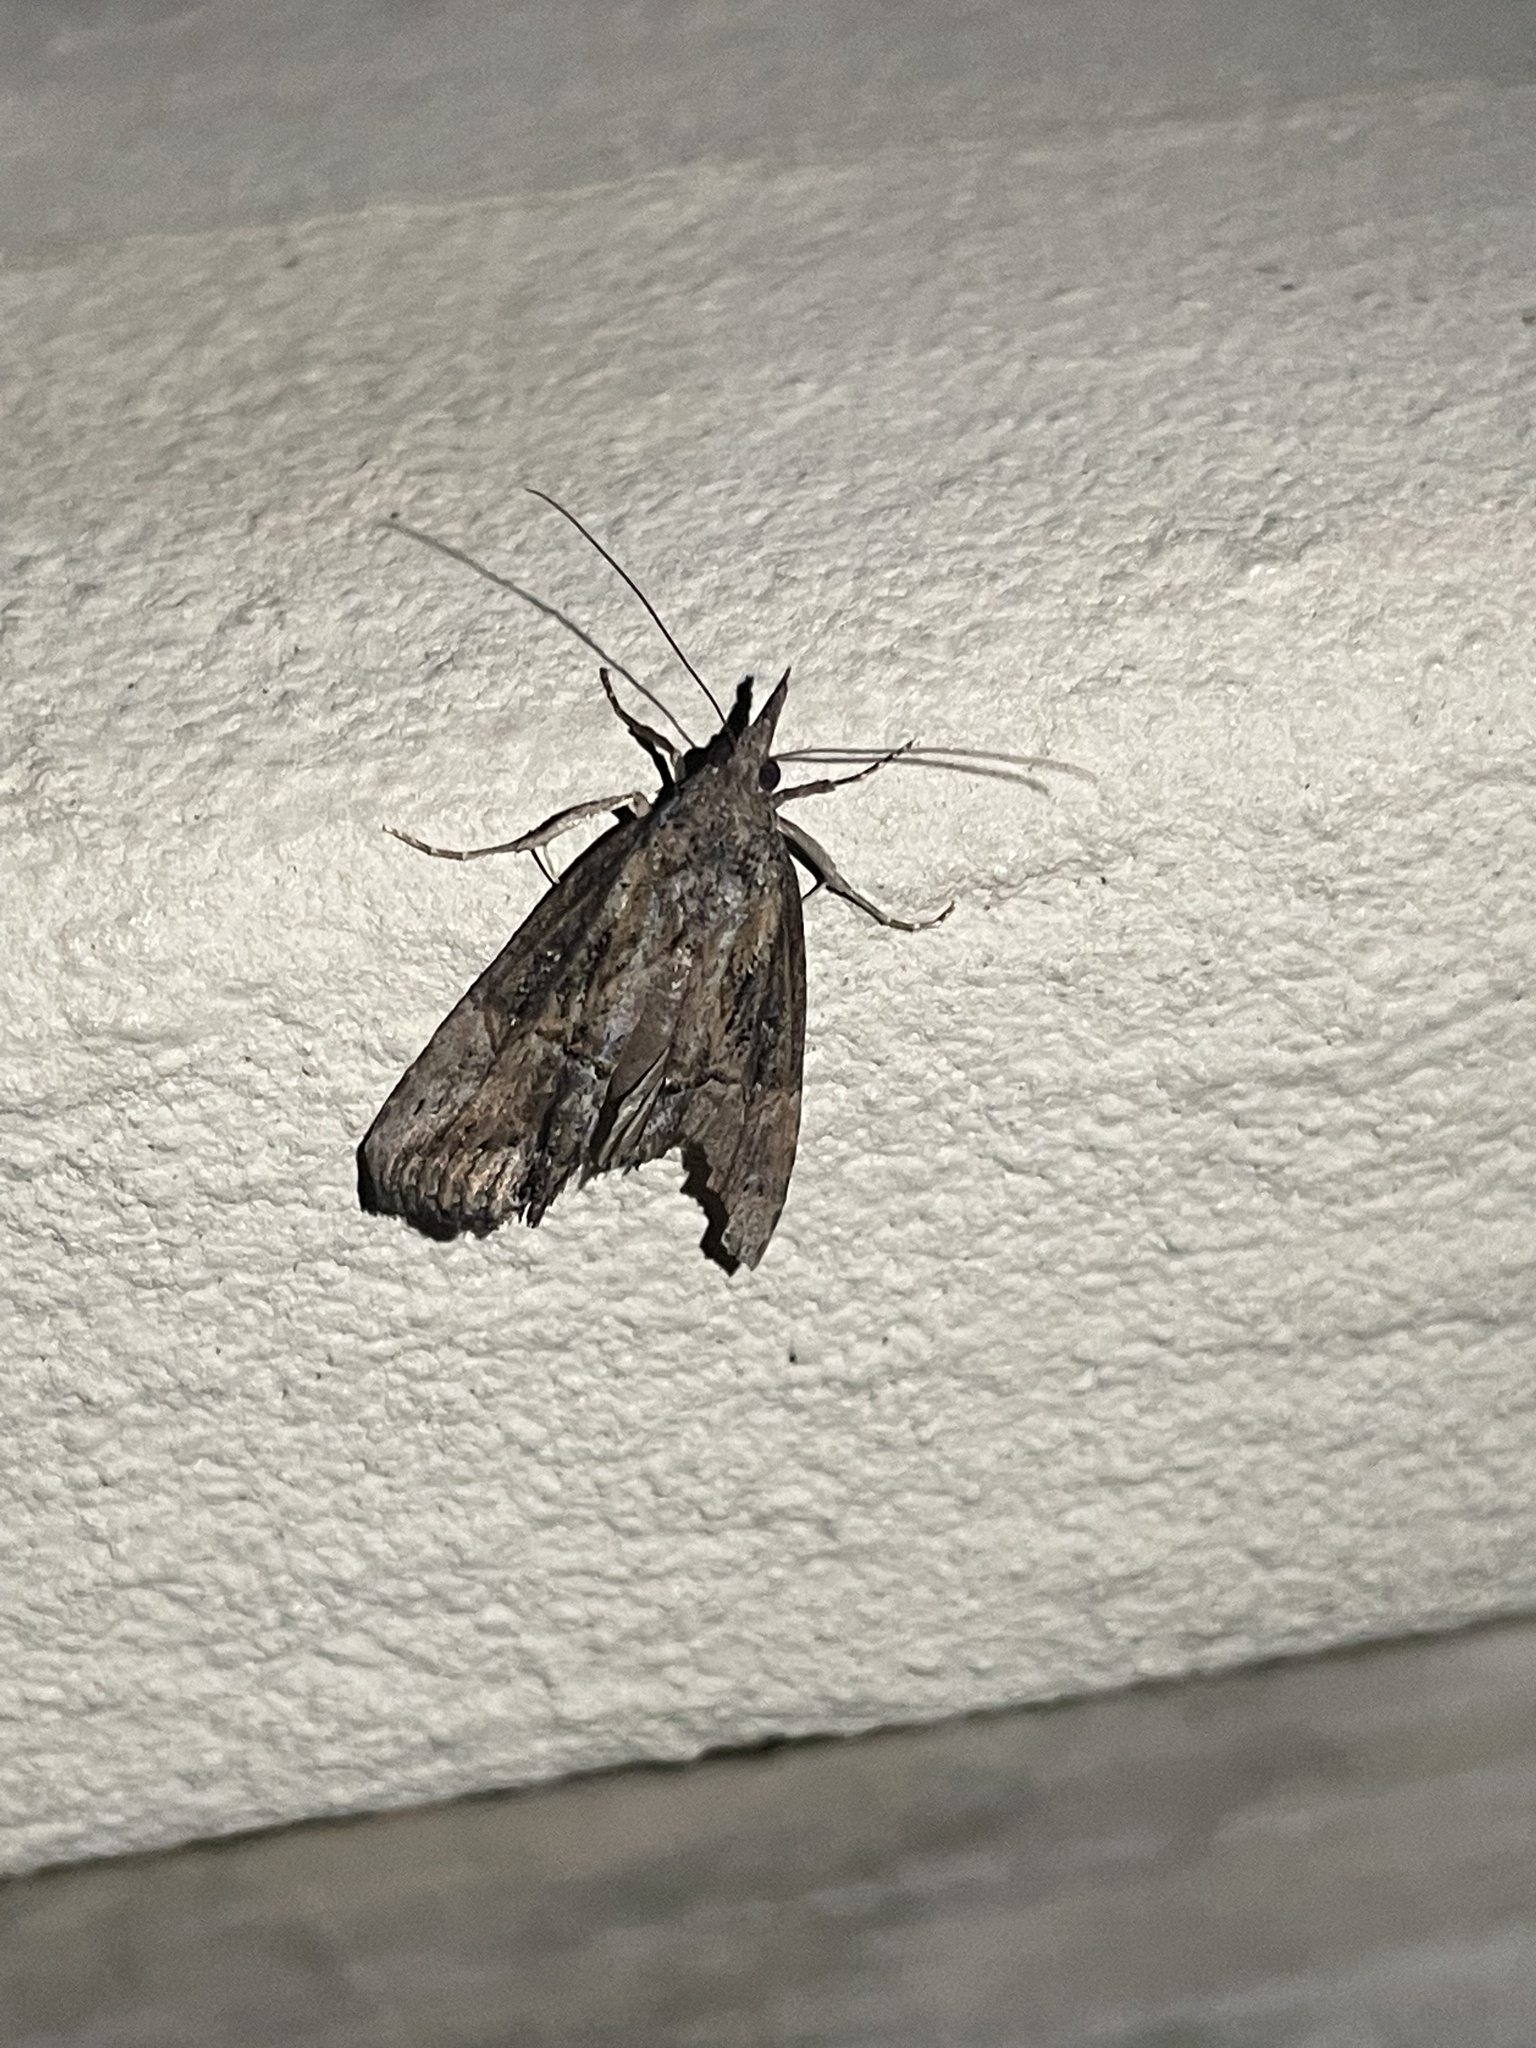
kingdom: Animalia
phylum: Arthropoda
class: Insecta
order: Lepidoptera
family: Erebidae
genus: Hypena
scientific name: Hypena scabra
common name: Green cloverworm
